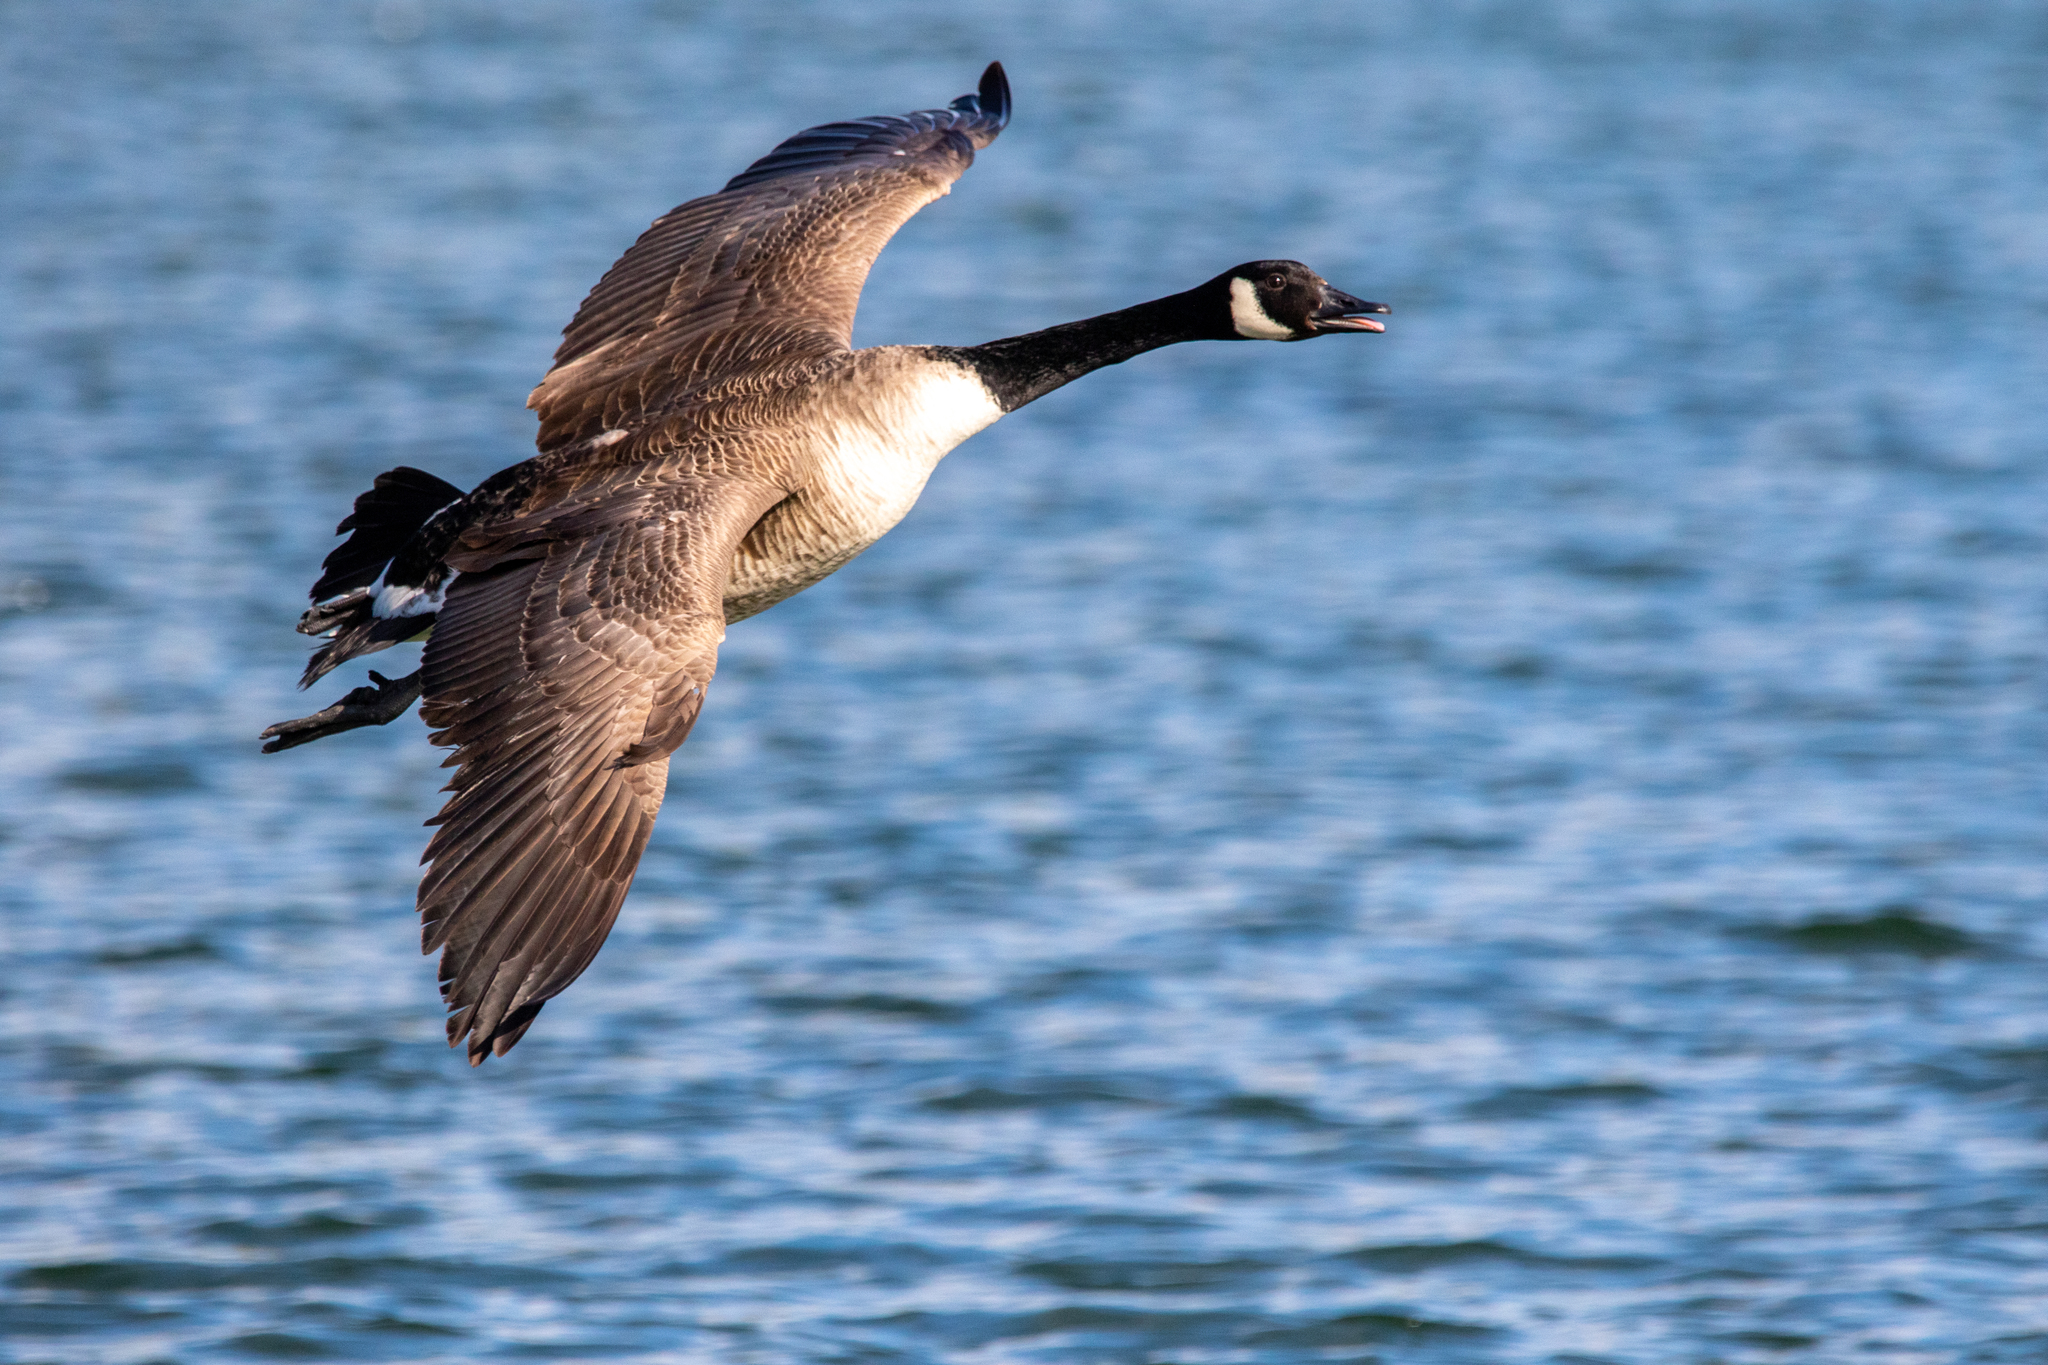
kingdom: Animalia
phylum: Chordata
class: Aves
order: Anseriformes
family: Anatidae
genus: Branta
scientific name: Branta canadensis
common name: Canada goose
